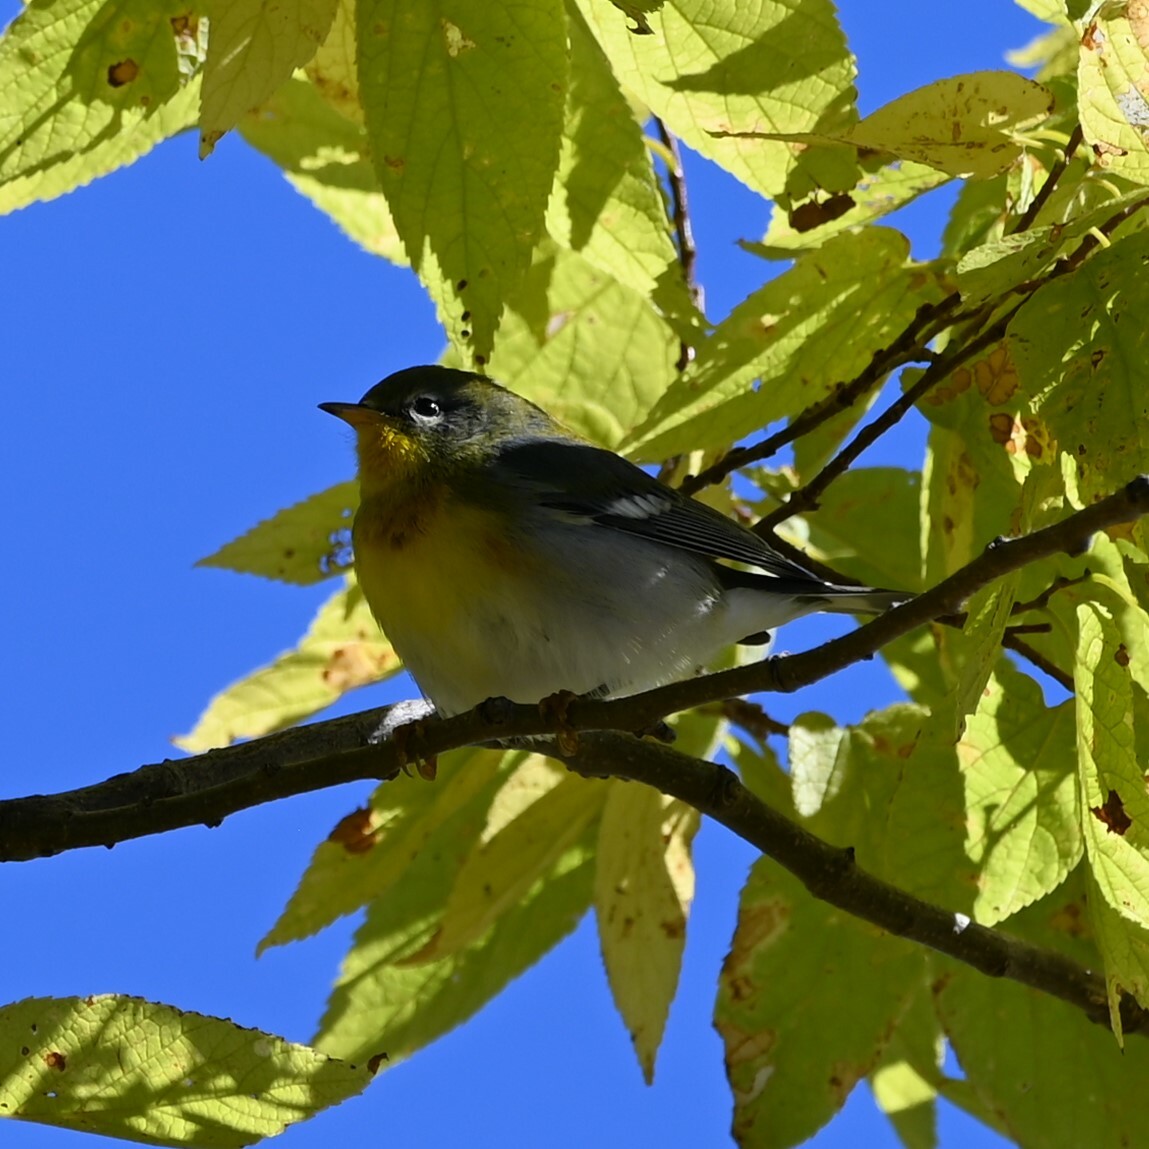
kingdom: Animalia
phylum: Chordata
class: Aves
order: Passeriformes
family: Parulidae
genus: Setophaga
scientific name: Setophaga americana
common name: Northern parula
